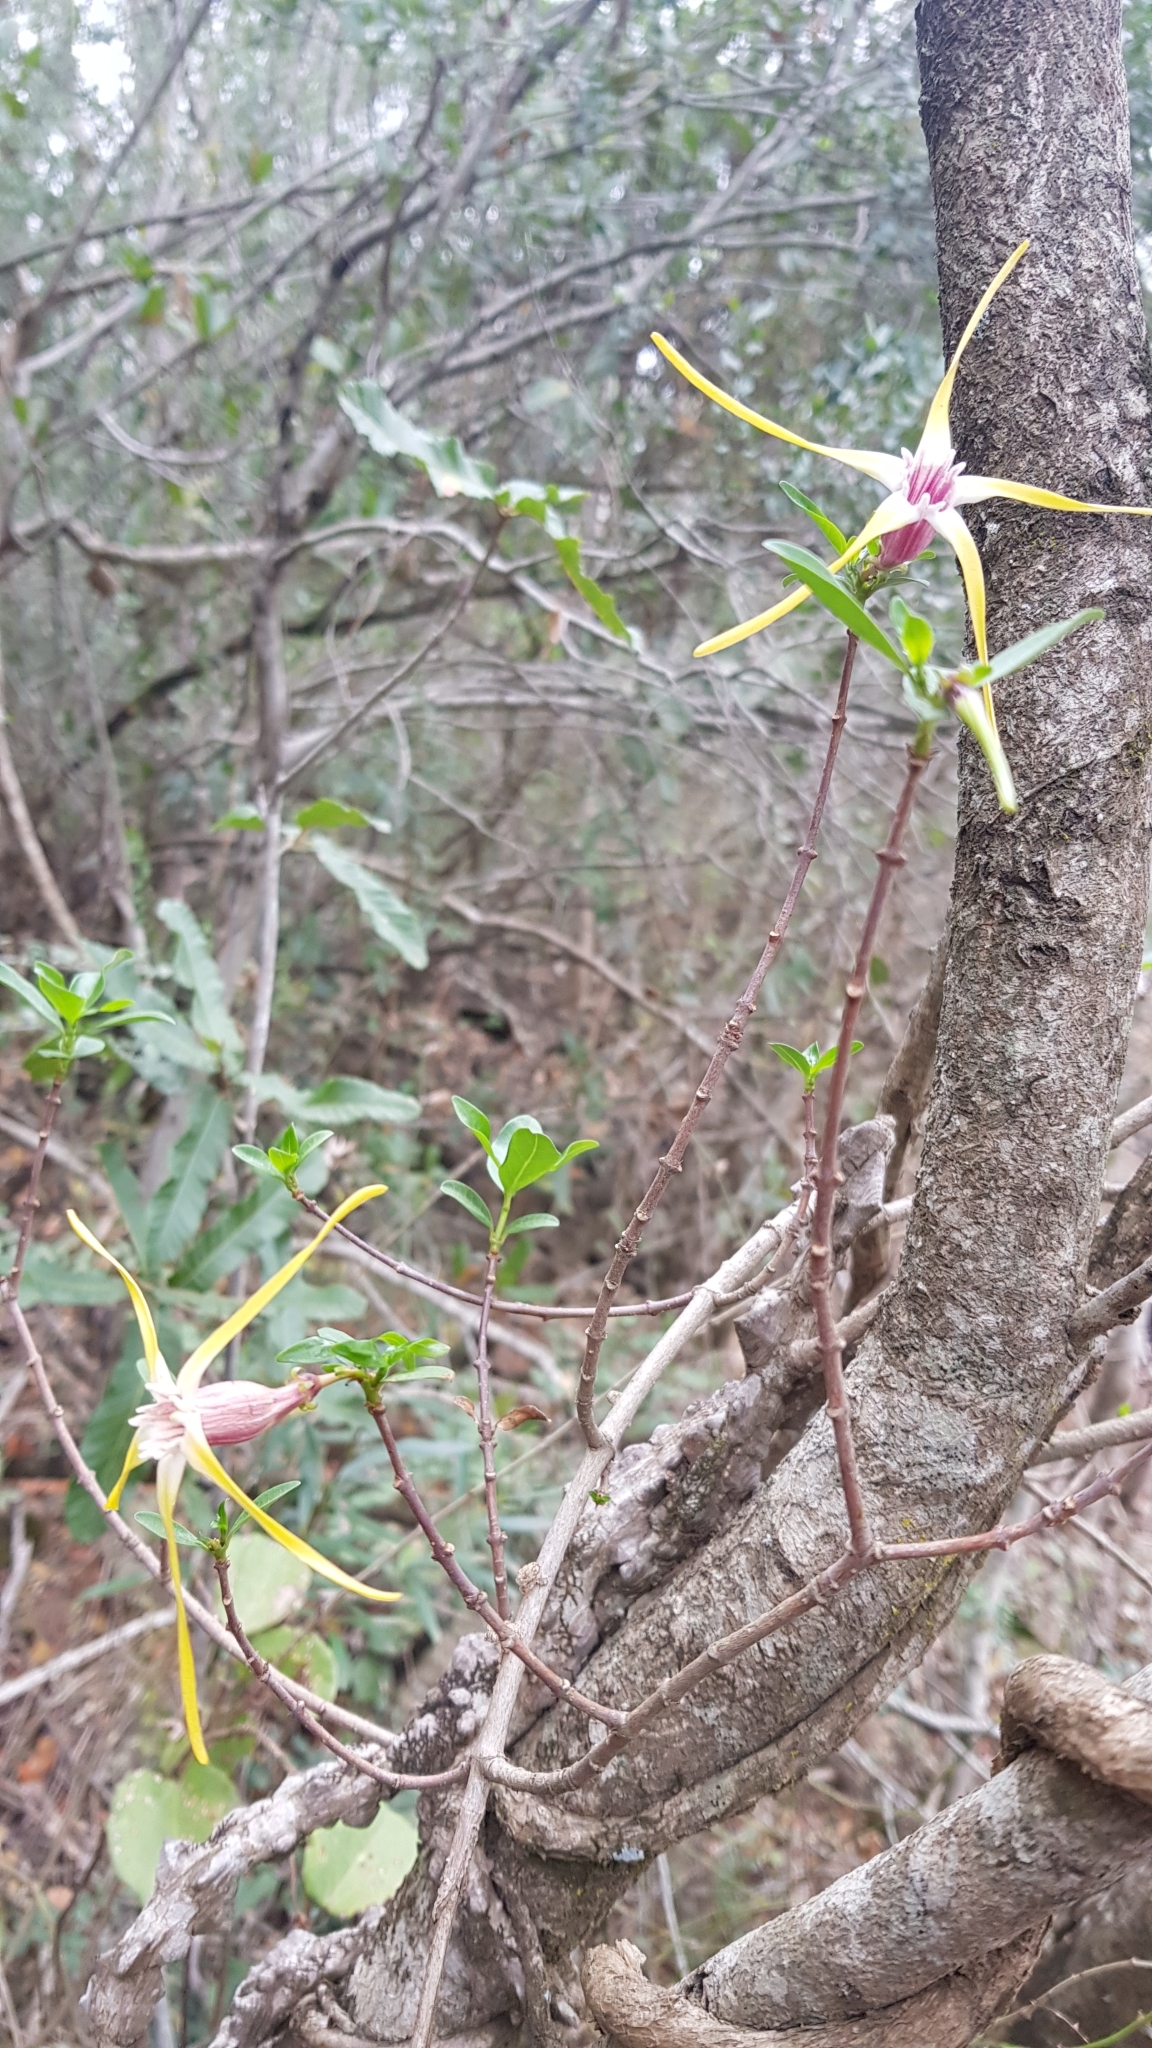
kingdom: Plantae
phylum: Tracheophyta
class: Magnoliopsida
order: Gentianales
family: Apocynaceae
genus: Strophanthus
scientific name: Strophanthus gerrardii
